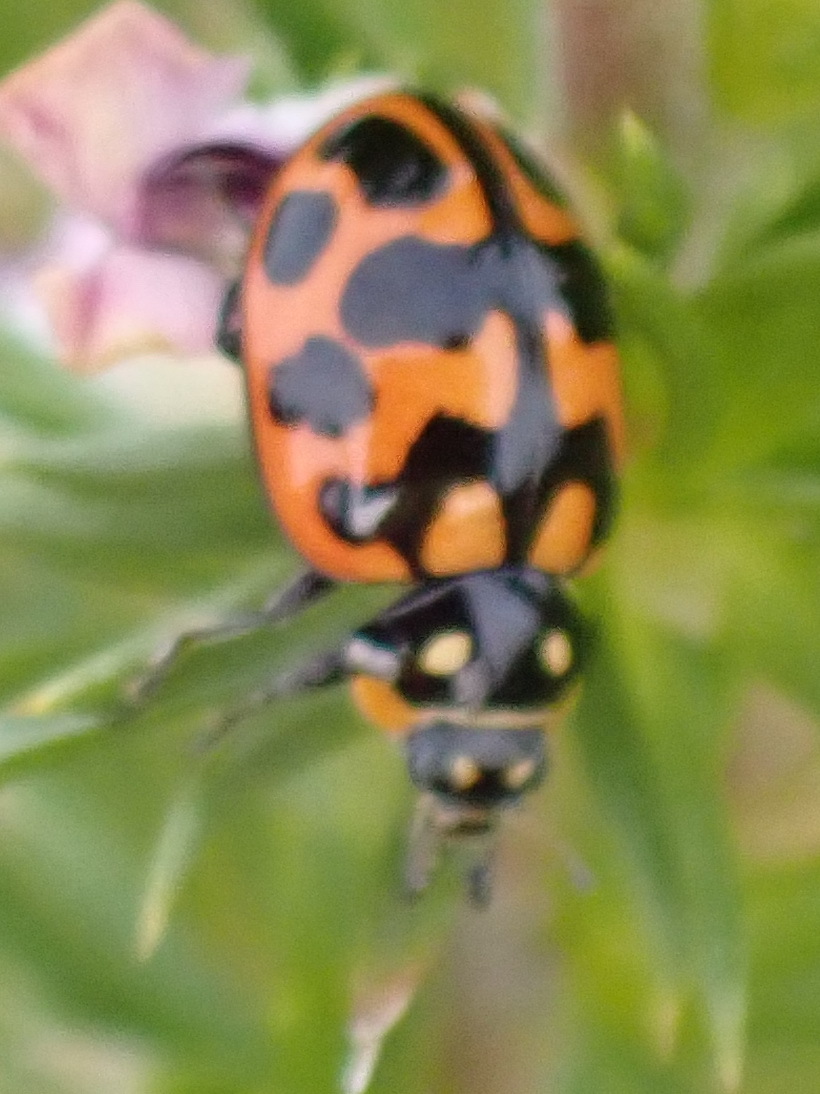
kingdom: Animalia
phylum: Arthropoda
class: Insecta
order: Coleoptera
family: Coccinellidae
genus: Lioadalia
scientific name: Lioadalia flavomaculata
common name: Ladybird beetle
